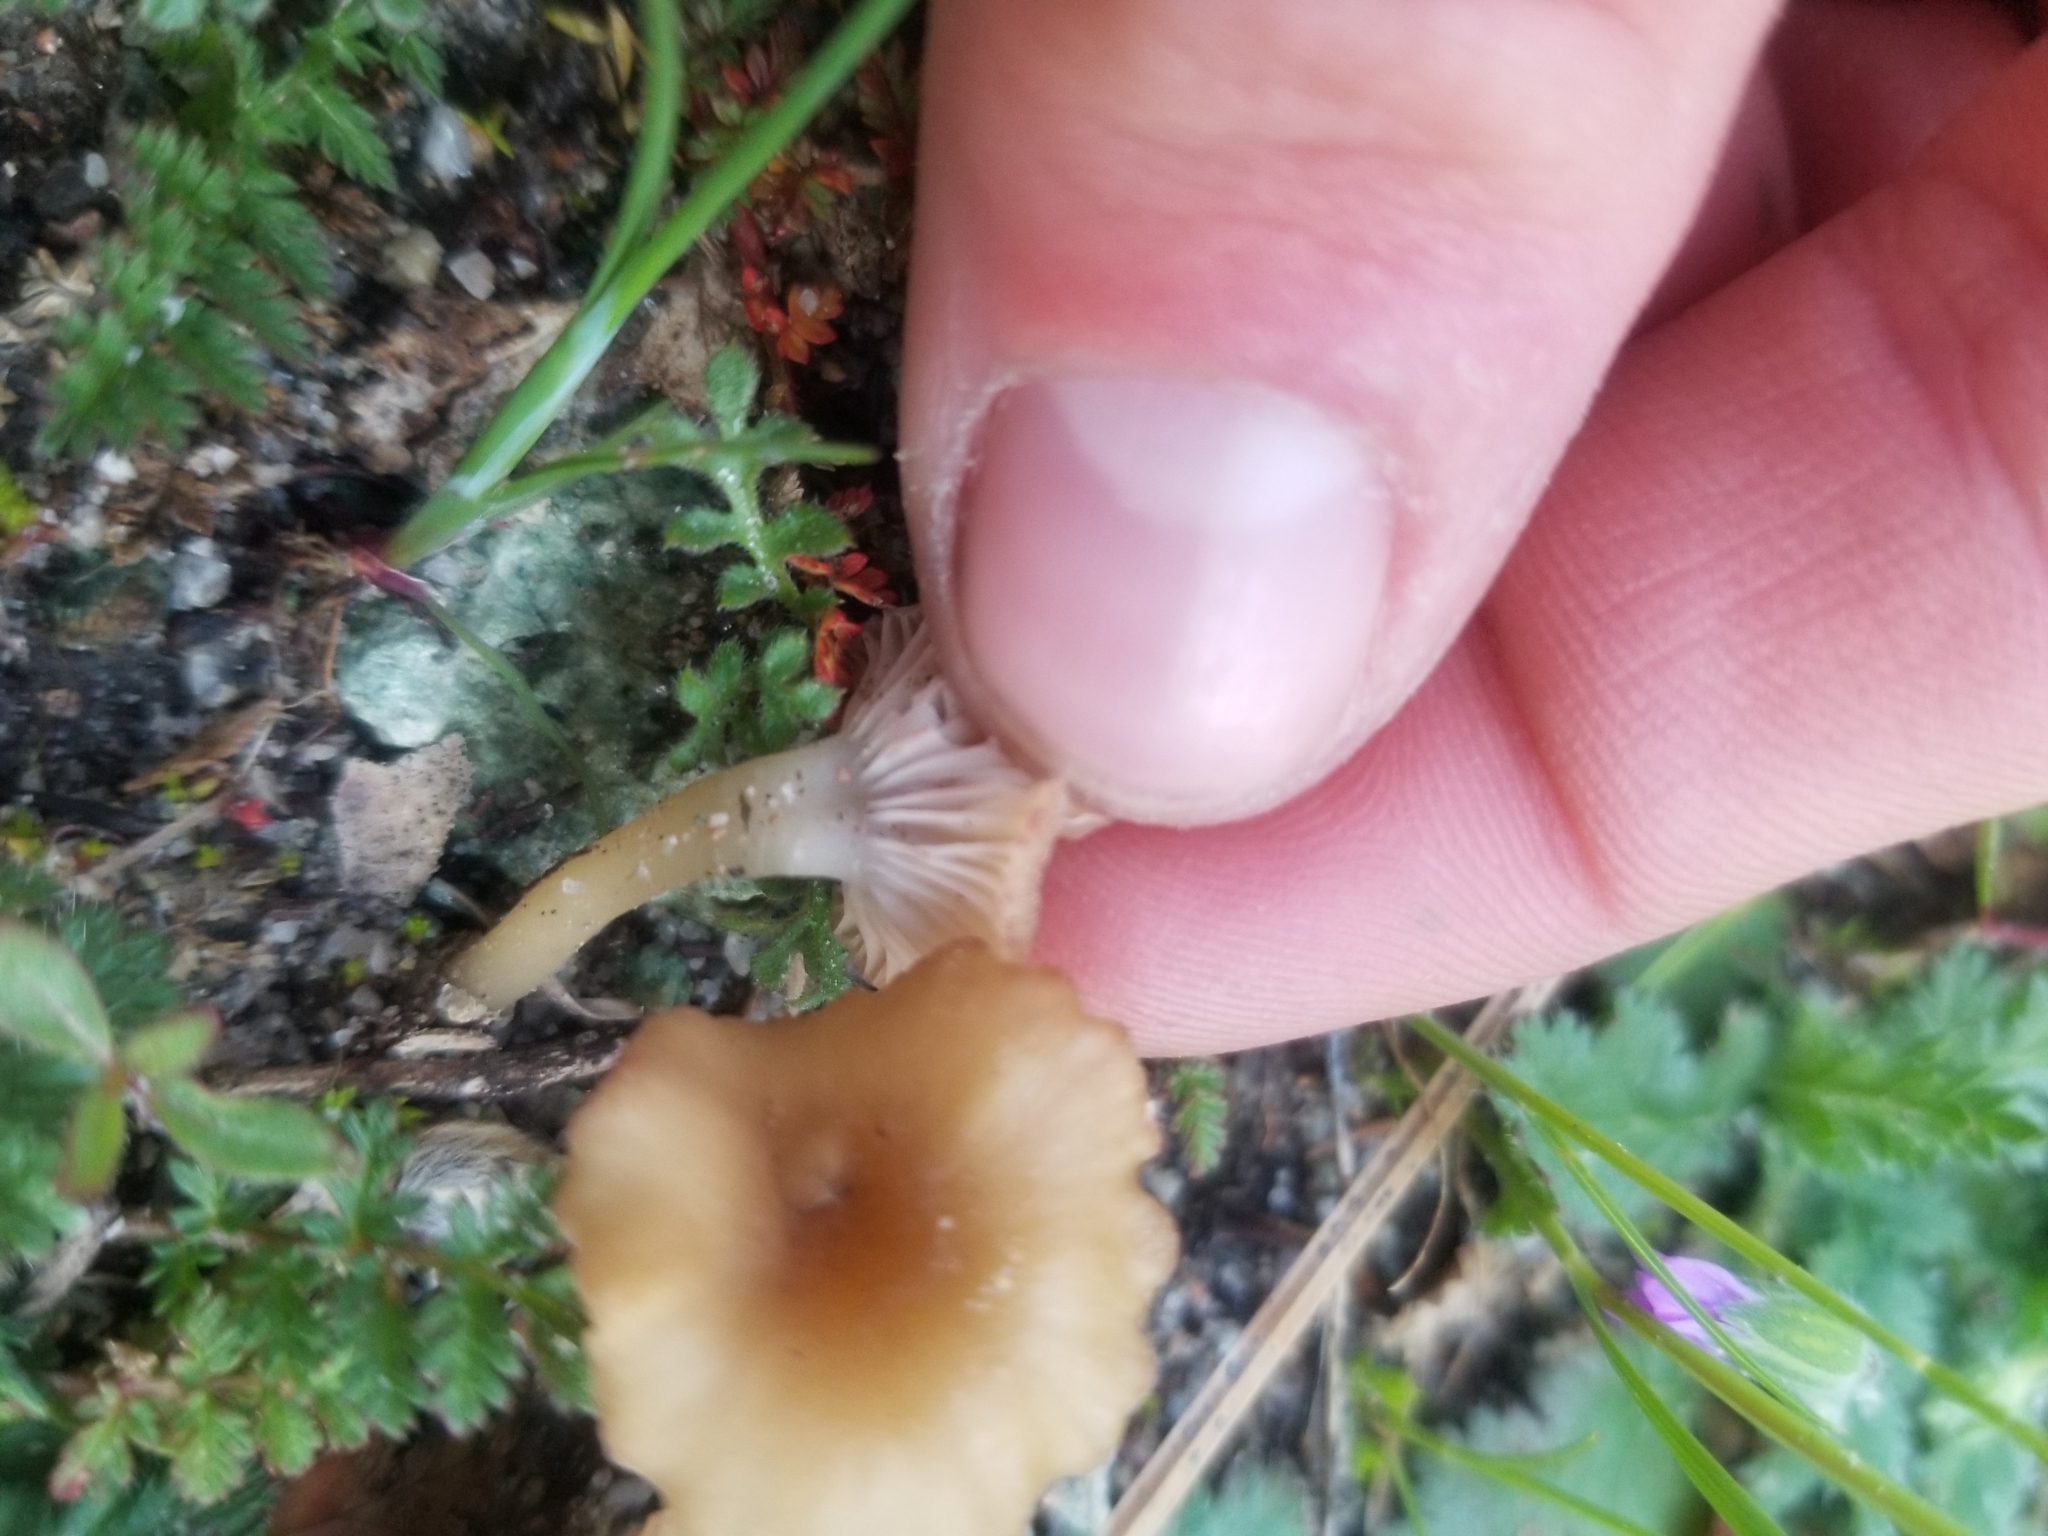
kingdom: Fungi
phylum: Basidiomycota
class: Agaricomycetes
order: Hymenochaetales
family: Rickenellaceae
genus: Contumyces
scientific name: Contumyces rosellus
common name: Rosy navel
